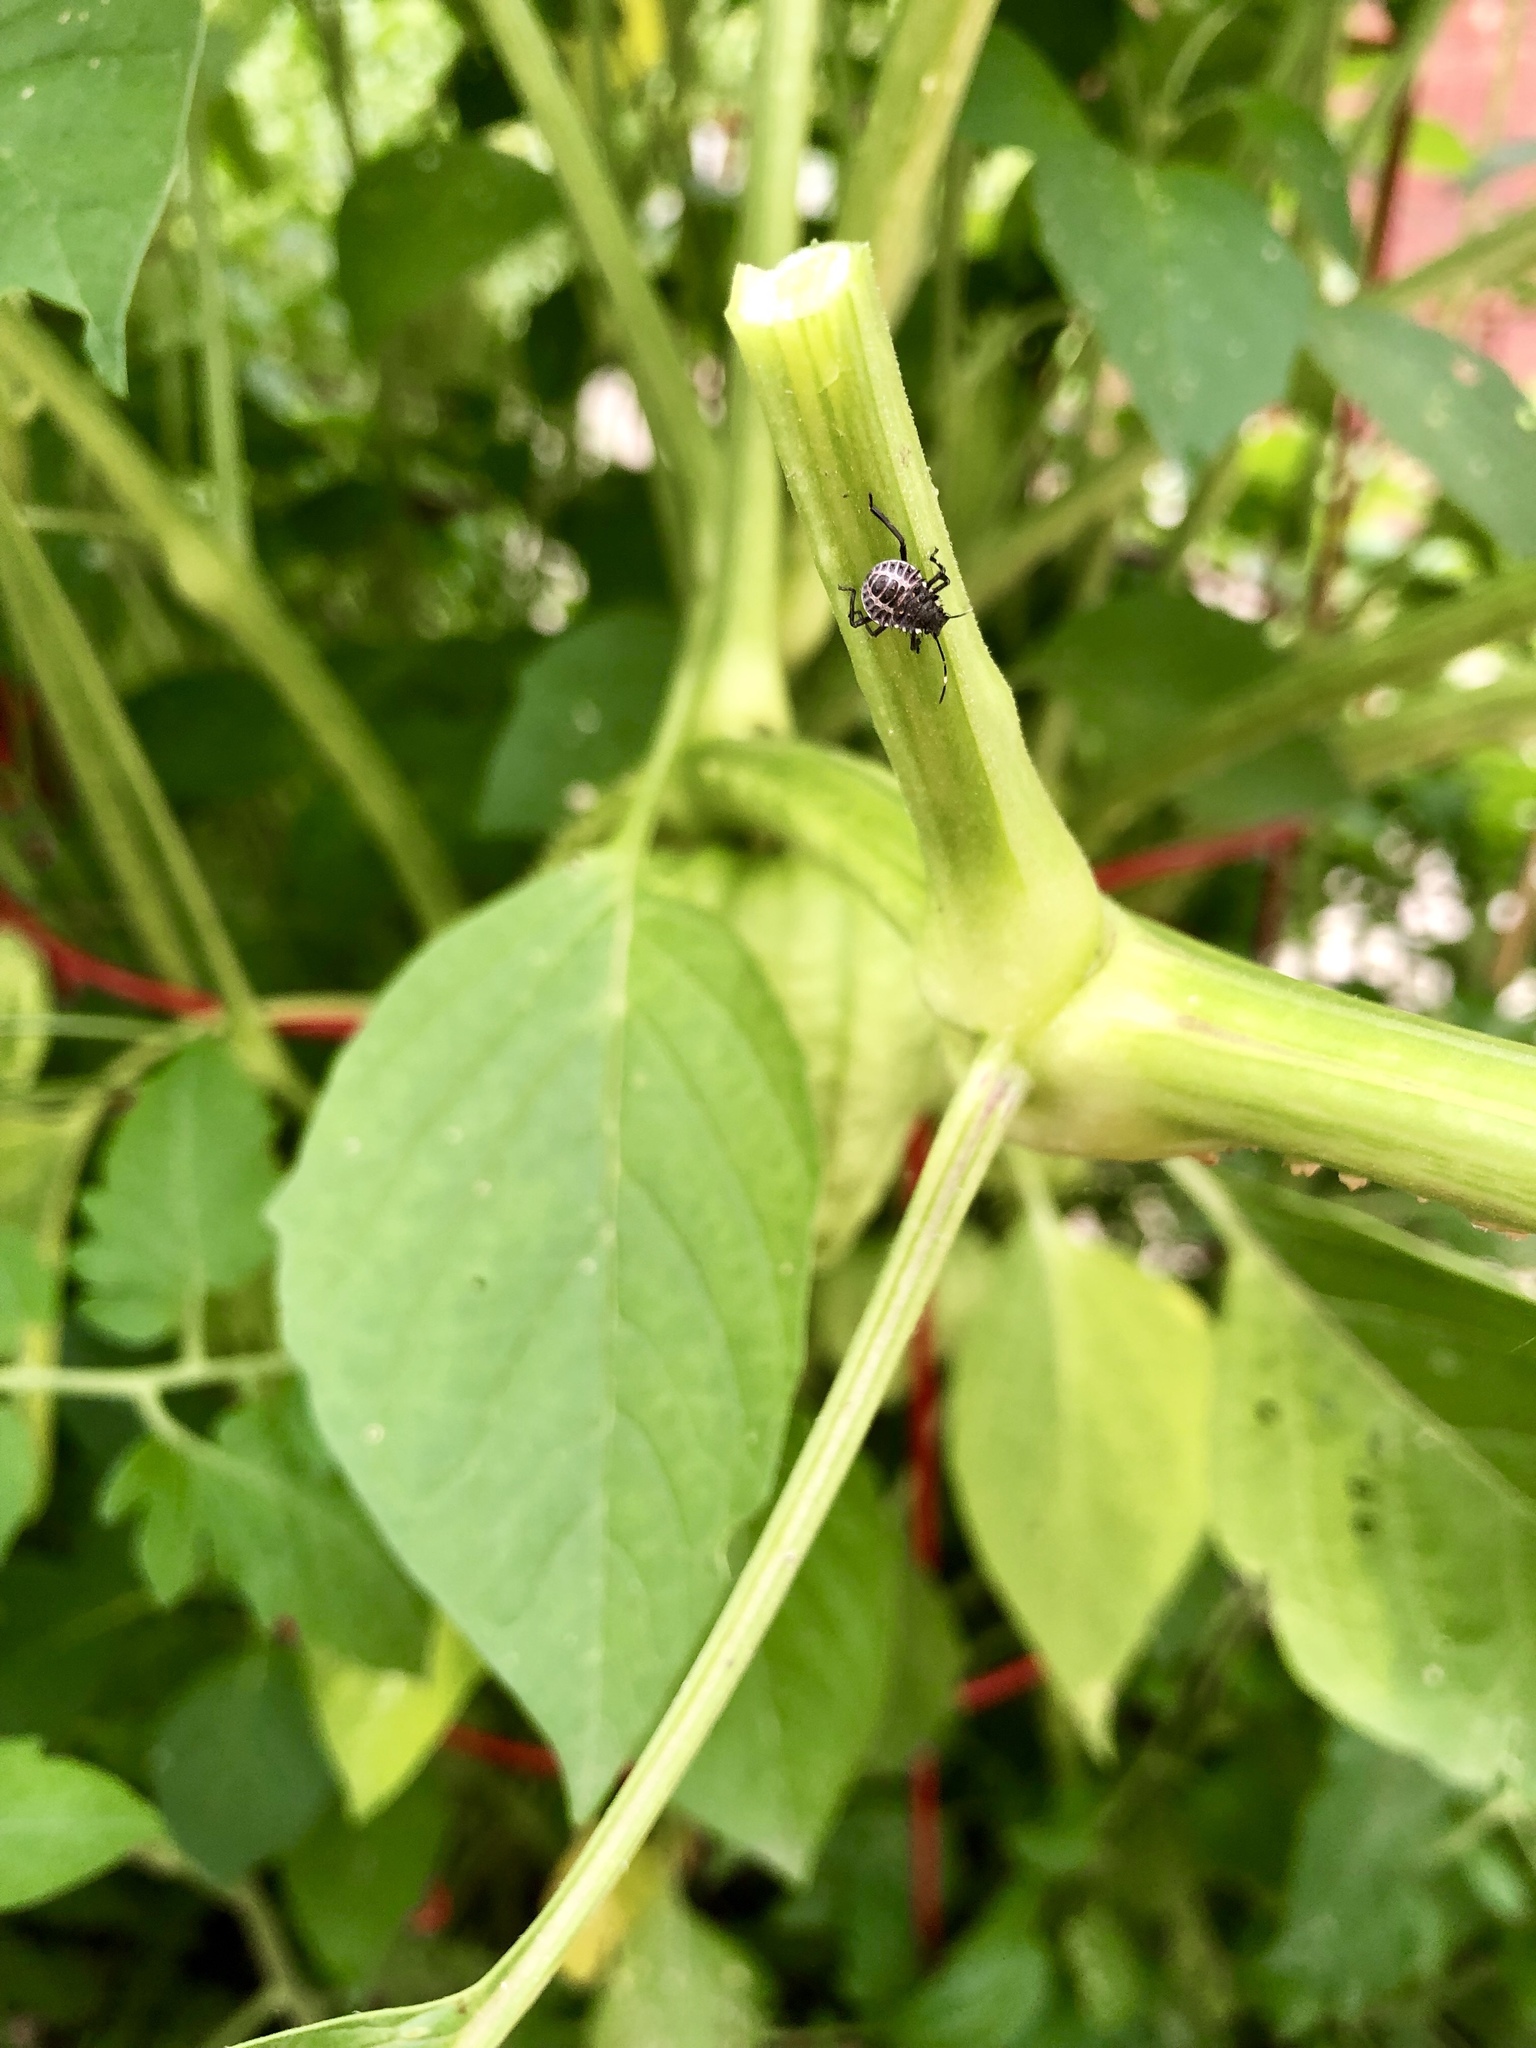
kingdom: Animalia
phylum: Arthropoda
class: Insecta
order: Hemiptera
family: Pentatomidae
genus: Halyomorpha
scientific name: Halyomorpha halys
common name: Brown marmorated stink bug
